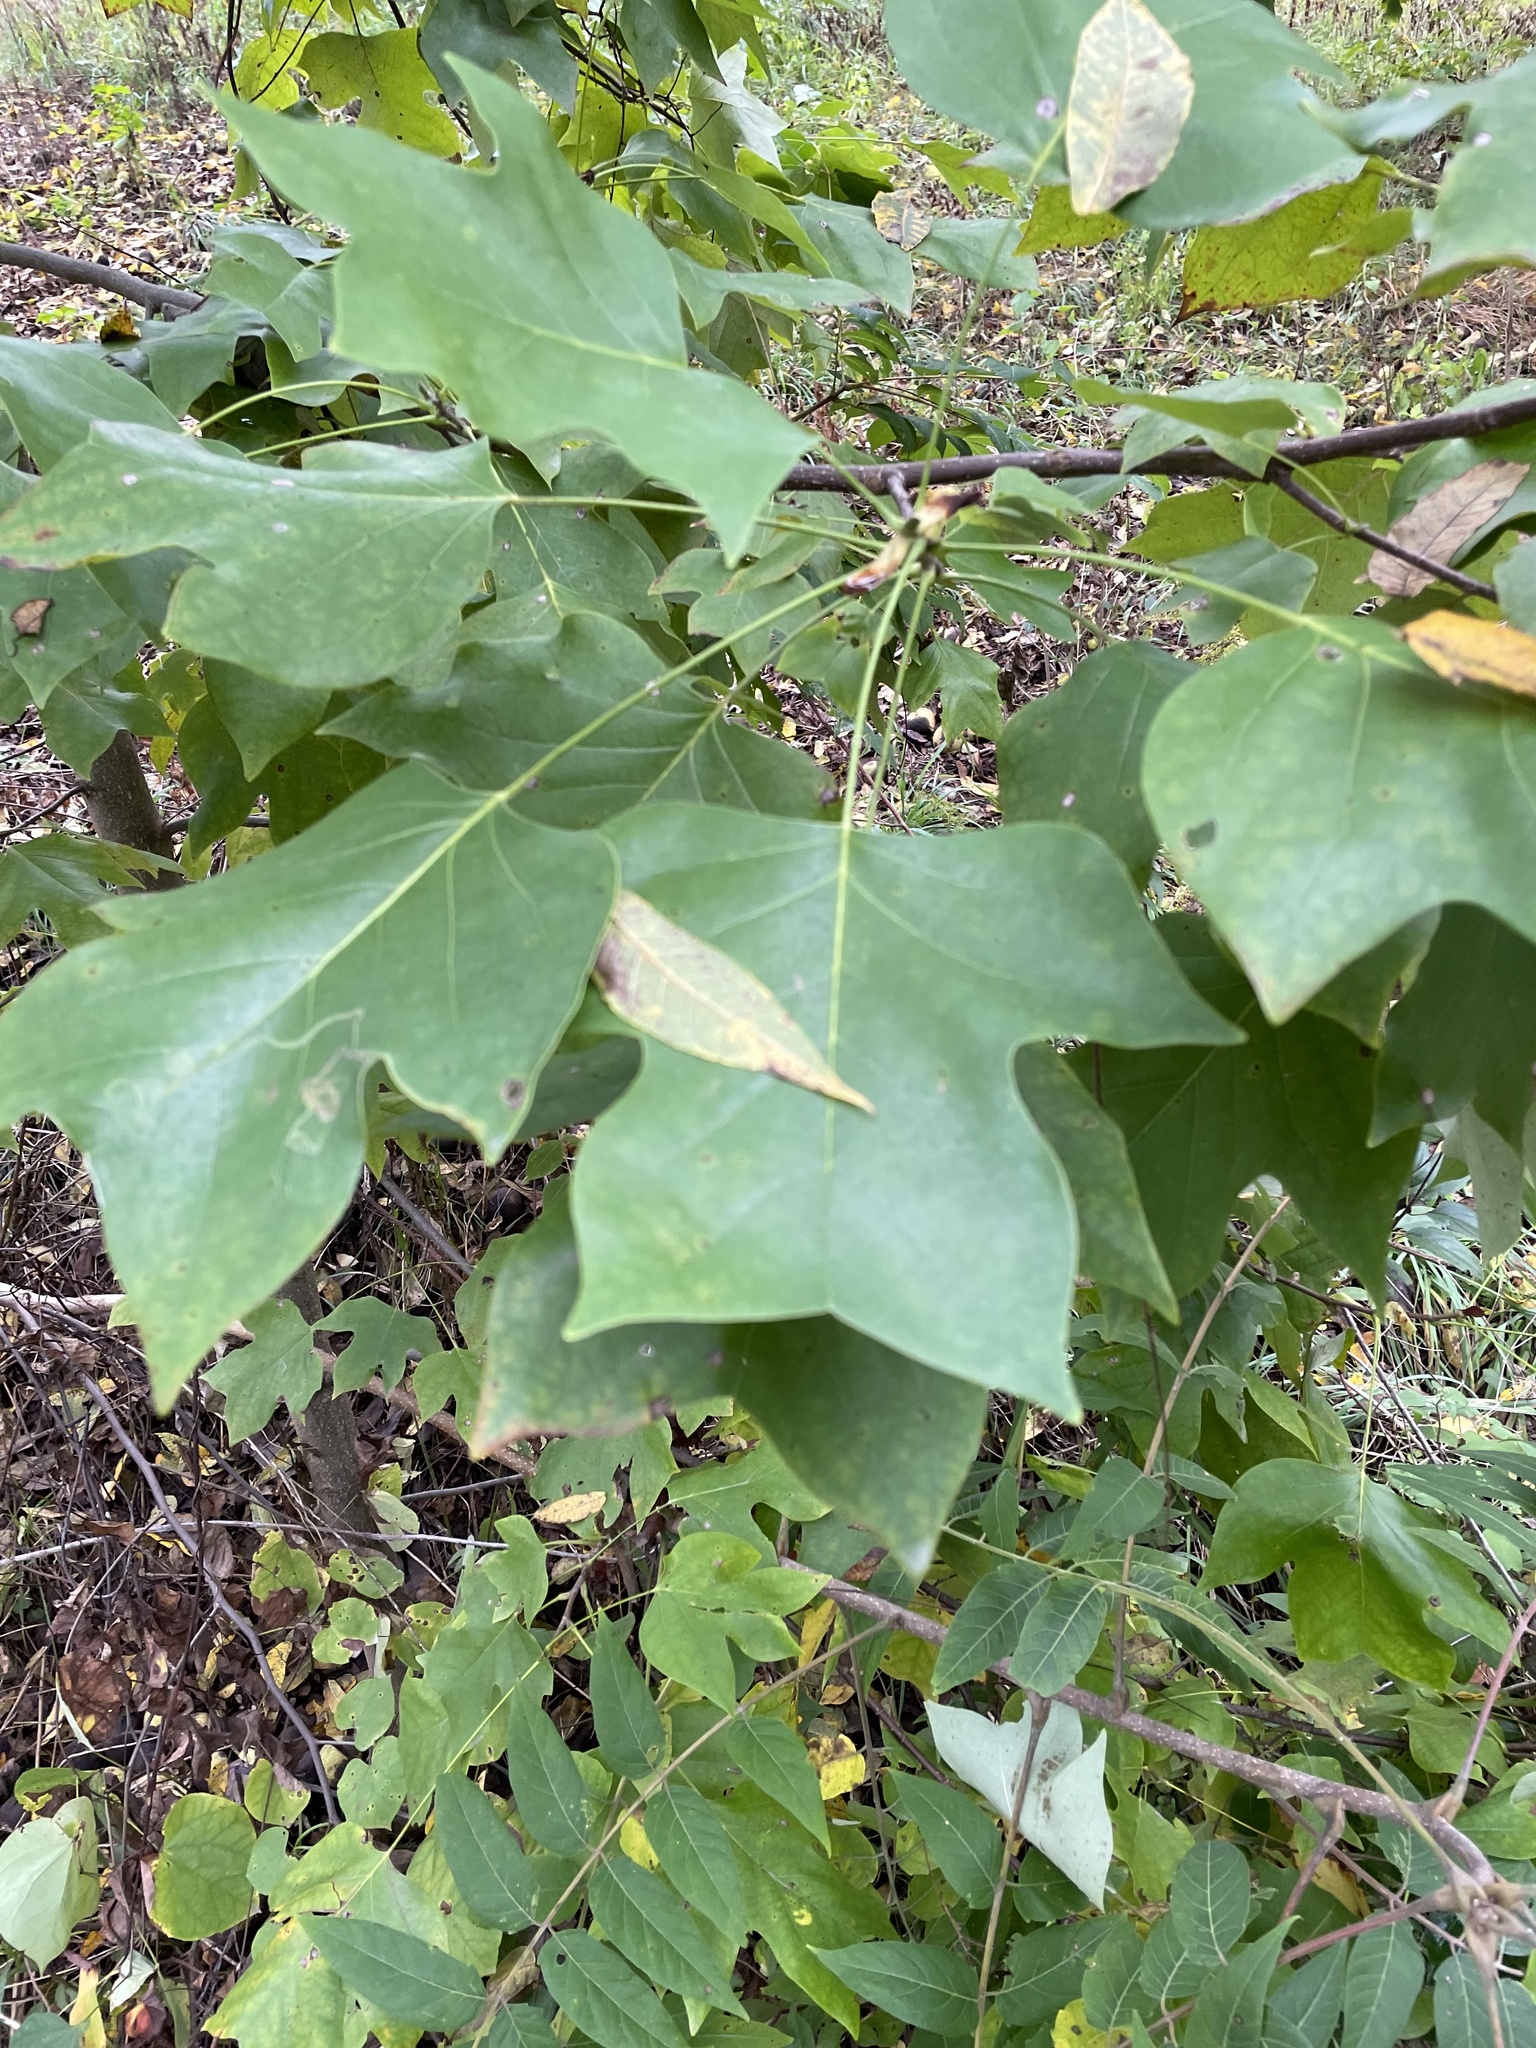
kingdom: Plantae
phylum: Tracheophyta
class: Magnoliopsida
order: Magnoliales
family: Magnoliaceae
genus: Liriodendron
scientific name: Liriodendron tulipifera
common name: Tulip tree
